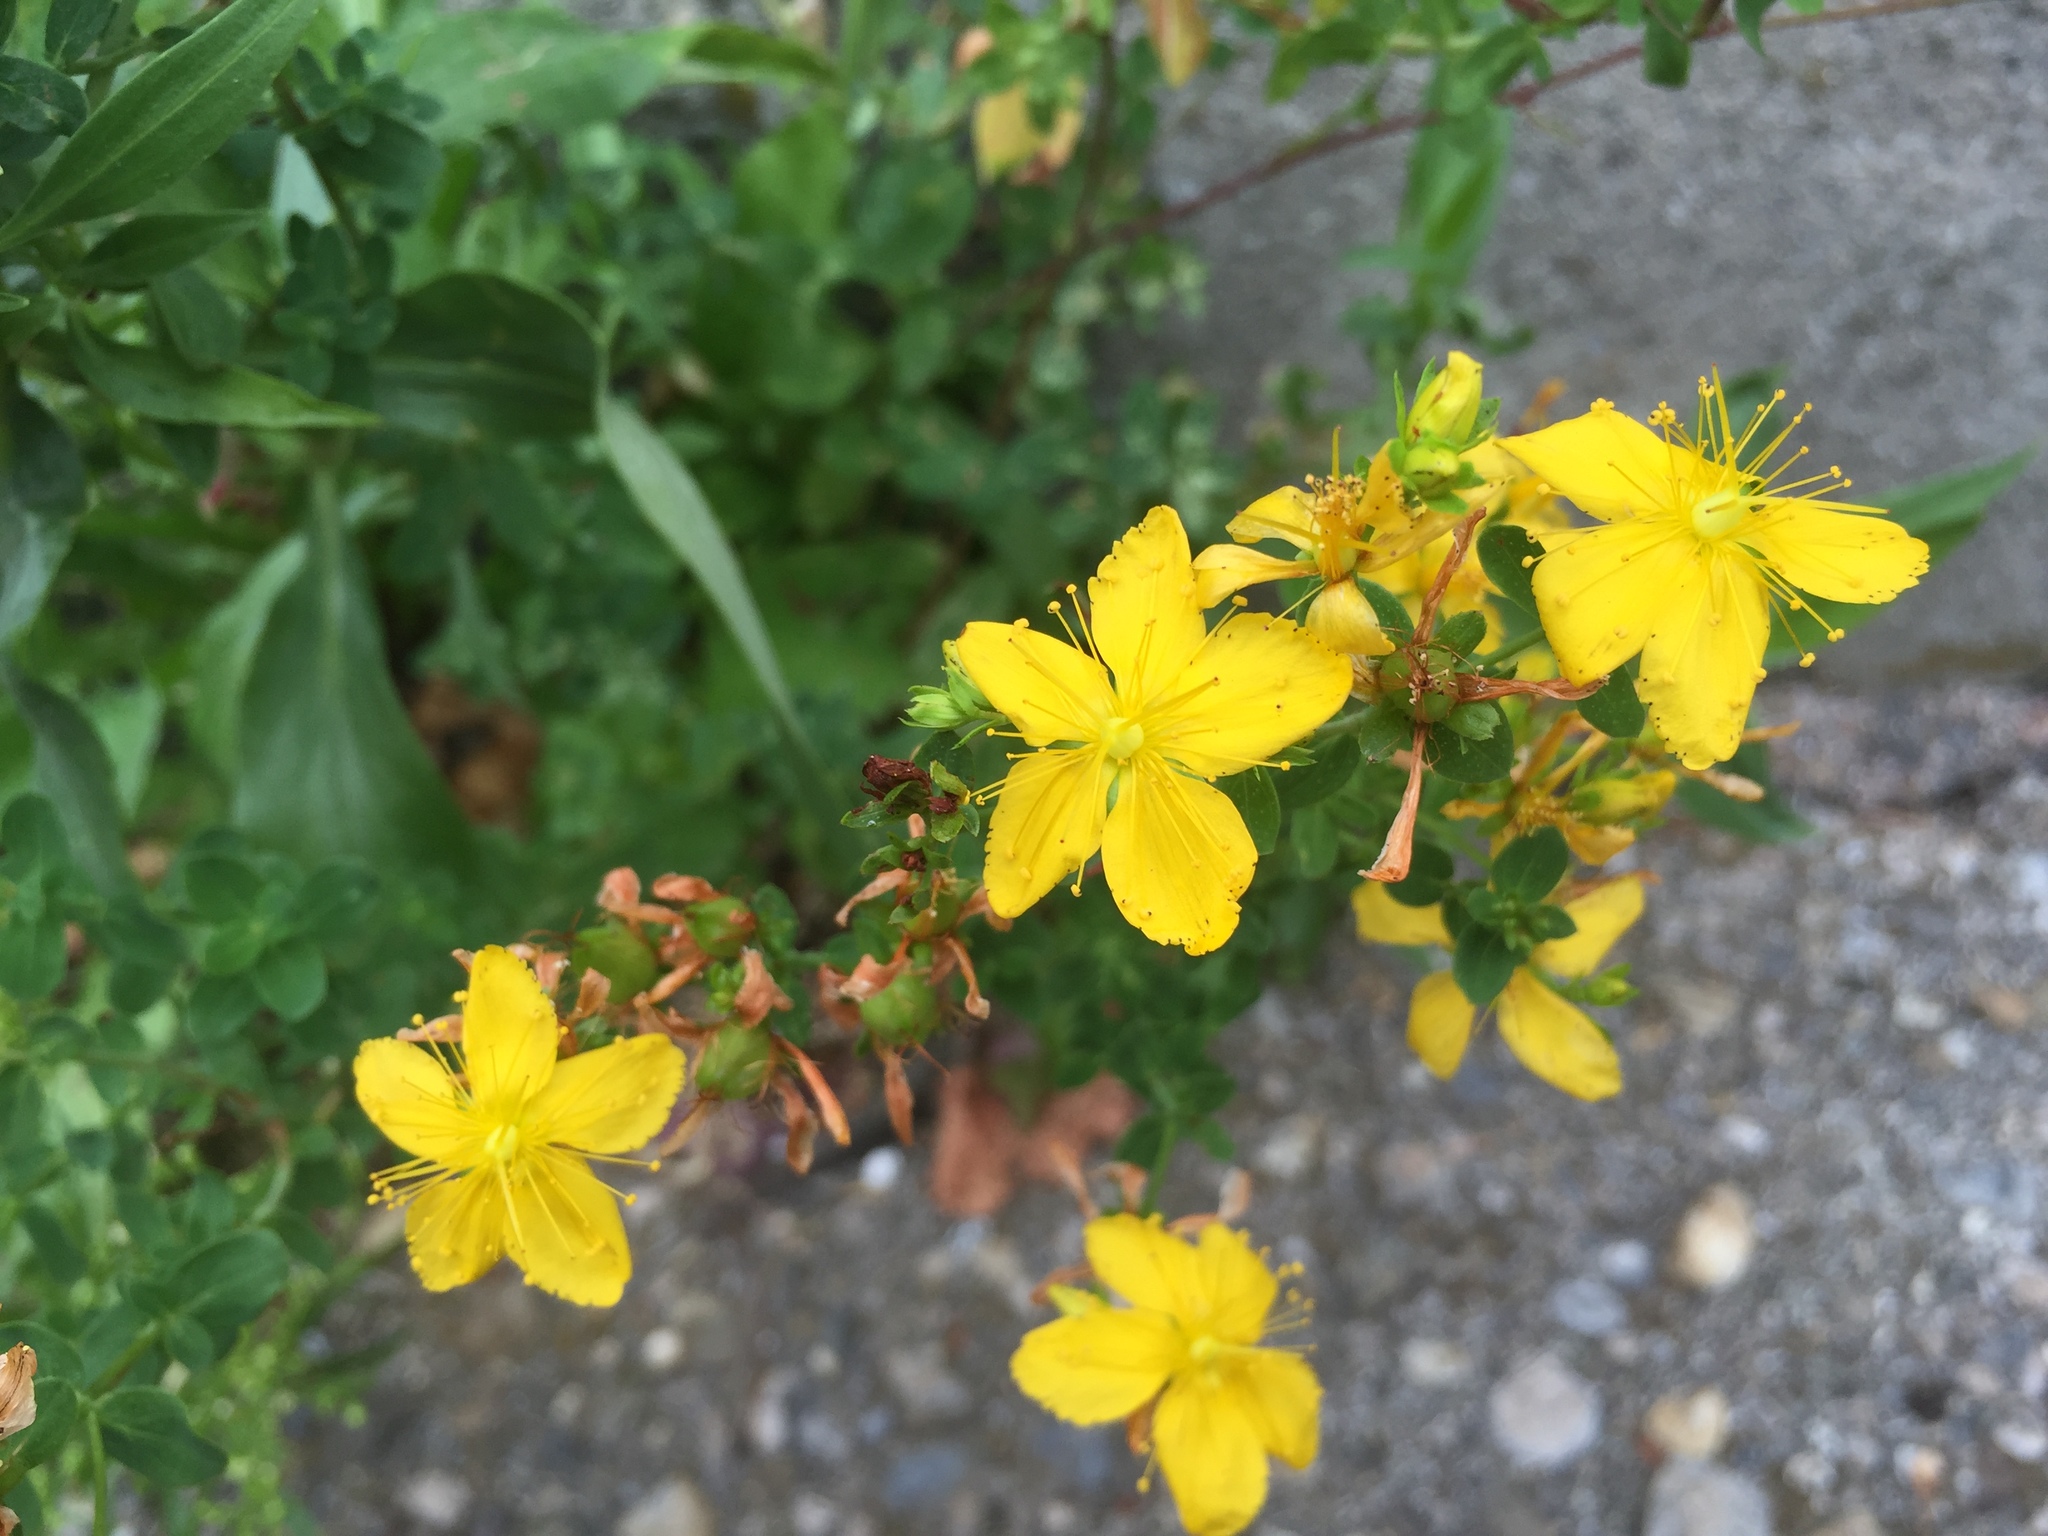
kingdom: Plantae
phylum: Tracheophyta
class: Magnoliopsida
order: Malpighiales
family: Hypericaceae
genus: Hypericum
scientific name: Hypericum perforatum
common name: Common st. johnswort
